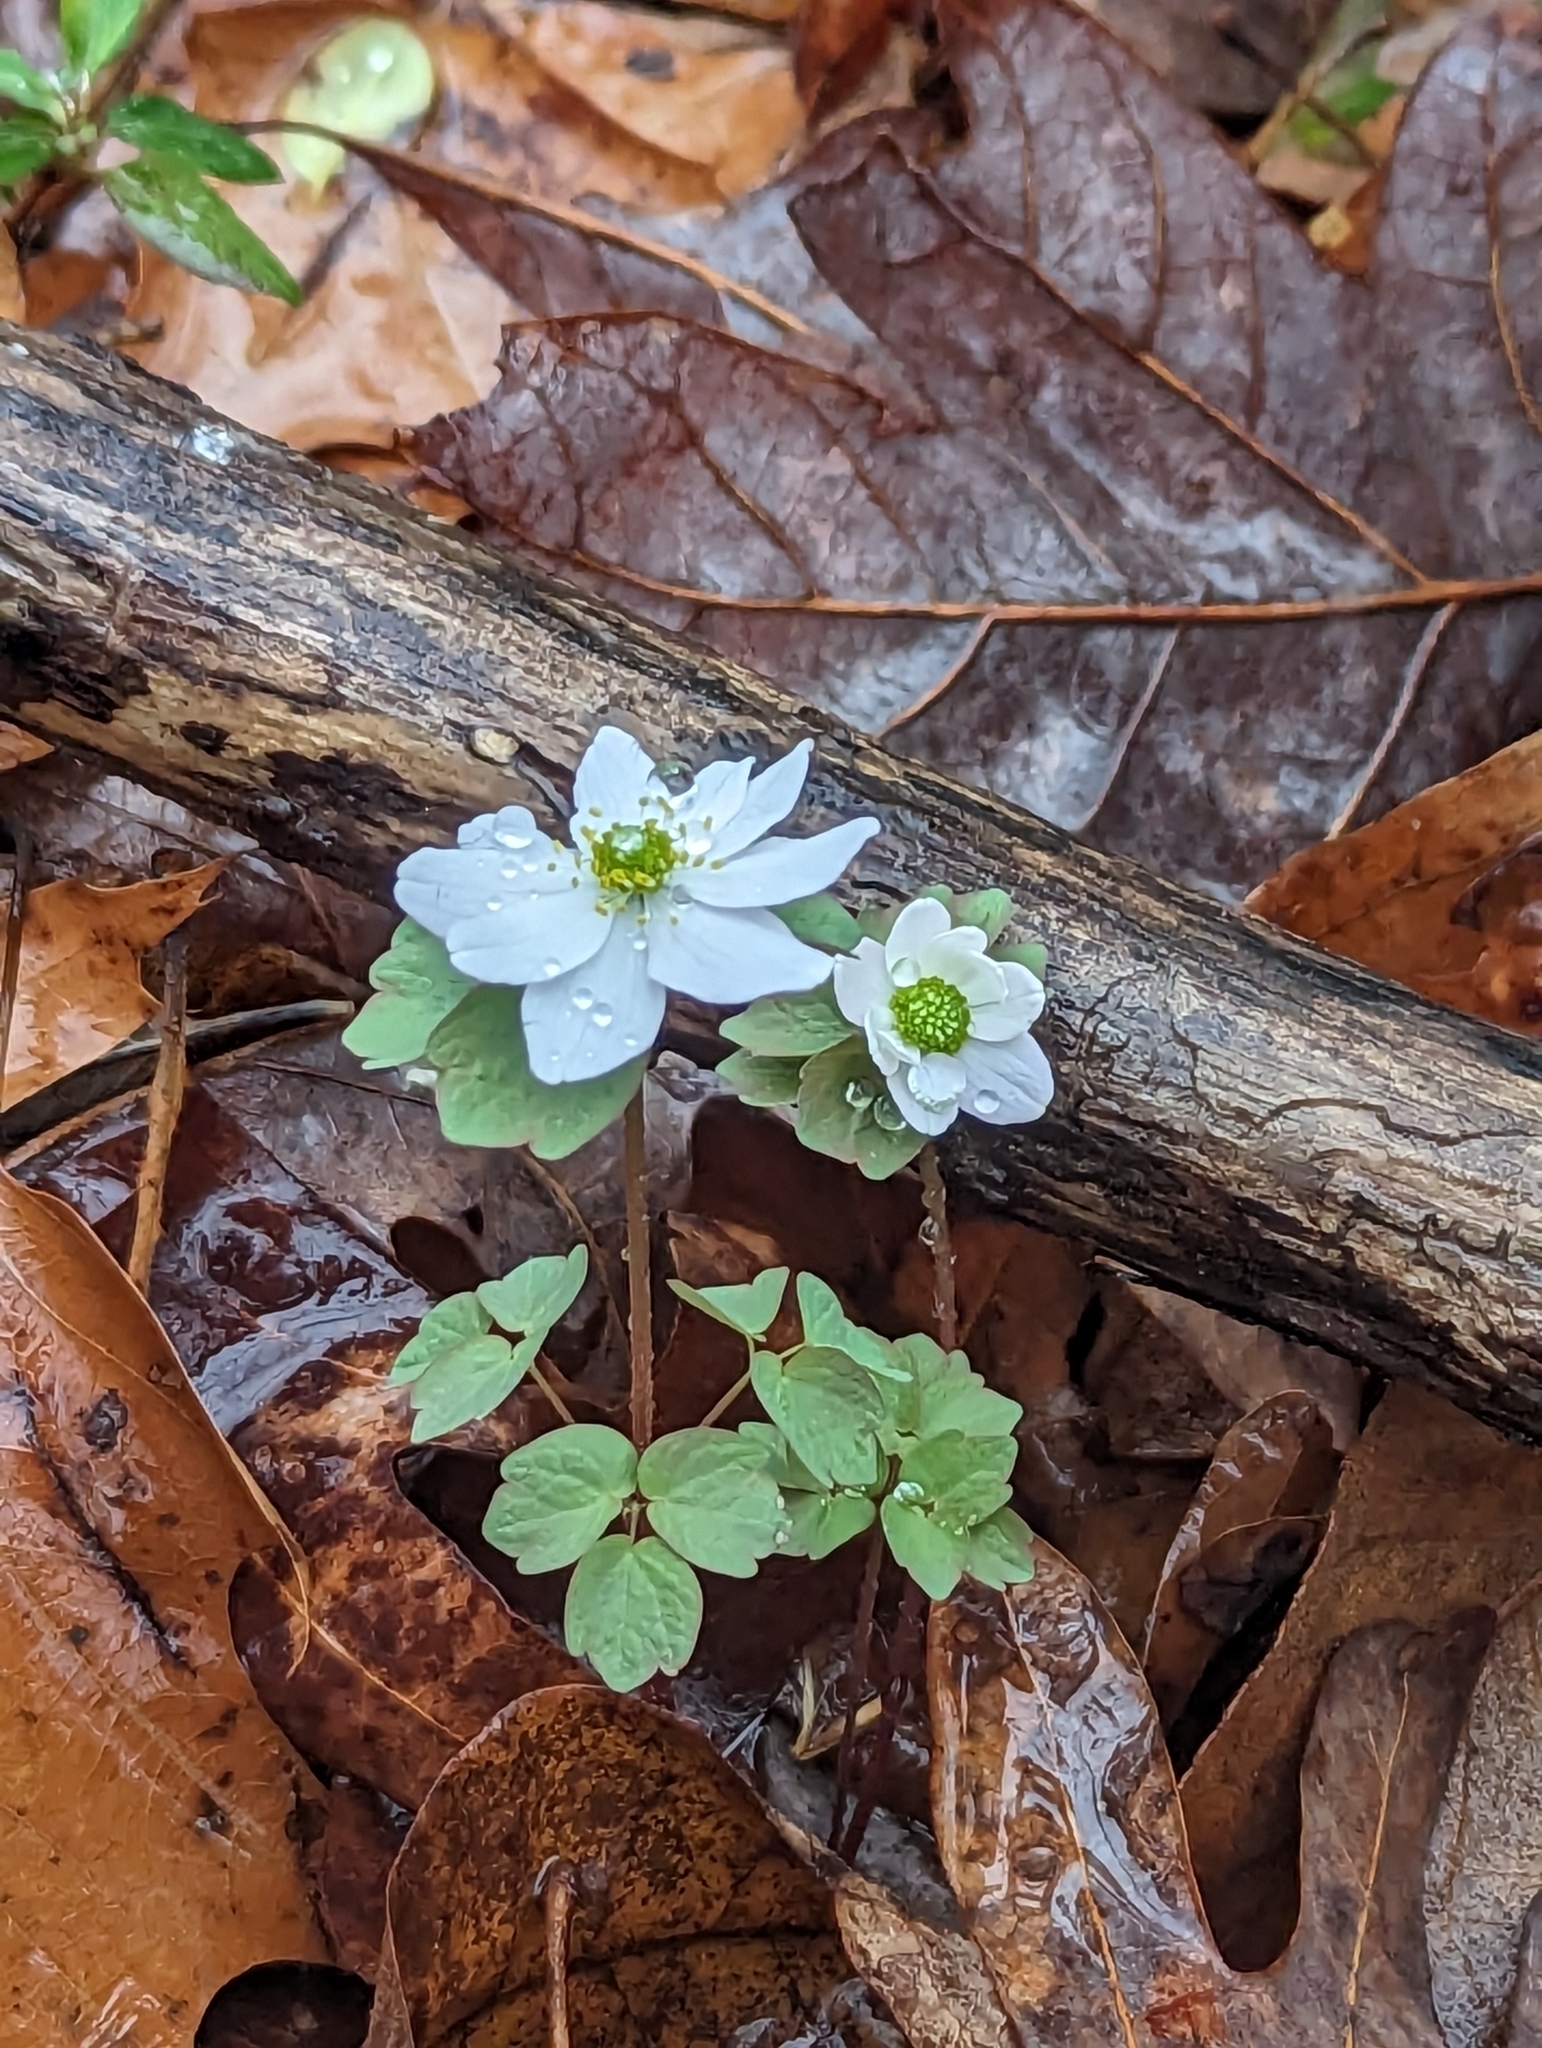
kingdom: Plantae
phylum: Tracheophyta
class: Magnoliopsida
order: Ranunculales
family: Ranunculaceae
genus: Thalictrum
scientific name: Thalictrum thalictroides
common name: Rue-anemone
